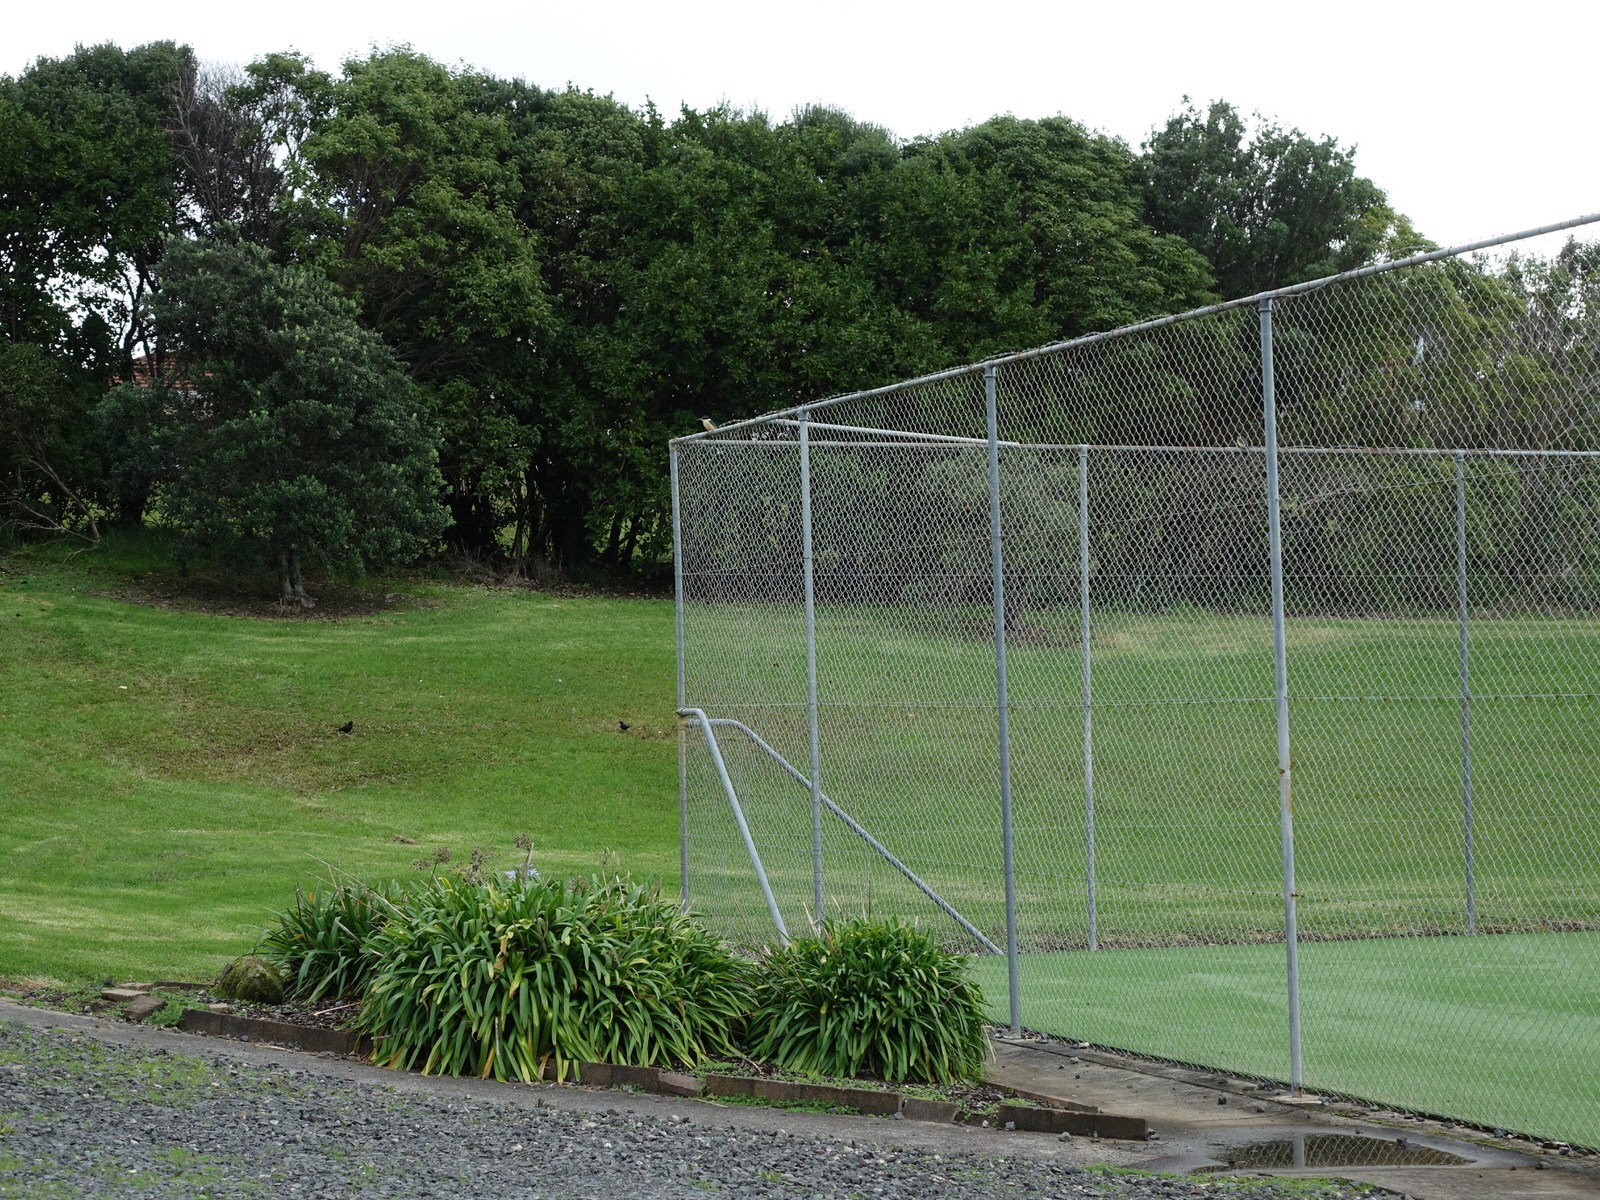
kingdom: Animalia
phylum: Chordata
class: Aves
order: Coraciiformes
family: Alcedinidae
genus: Todiramphus
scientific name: Todiramphus sanctus
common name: Sacred kingfisher
